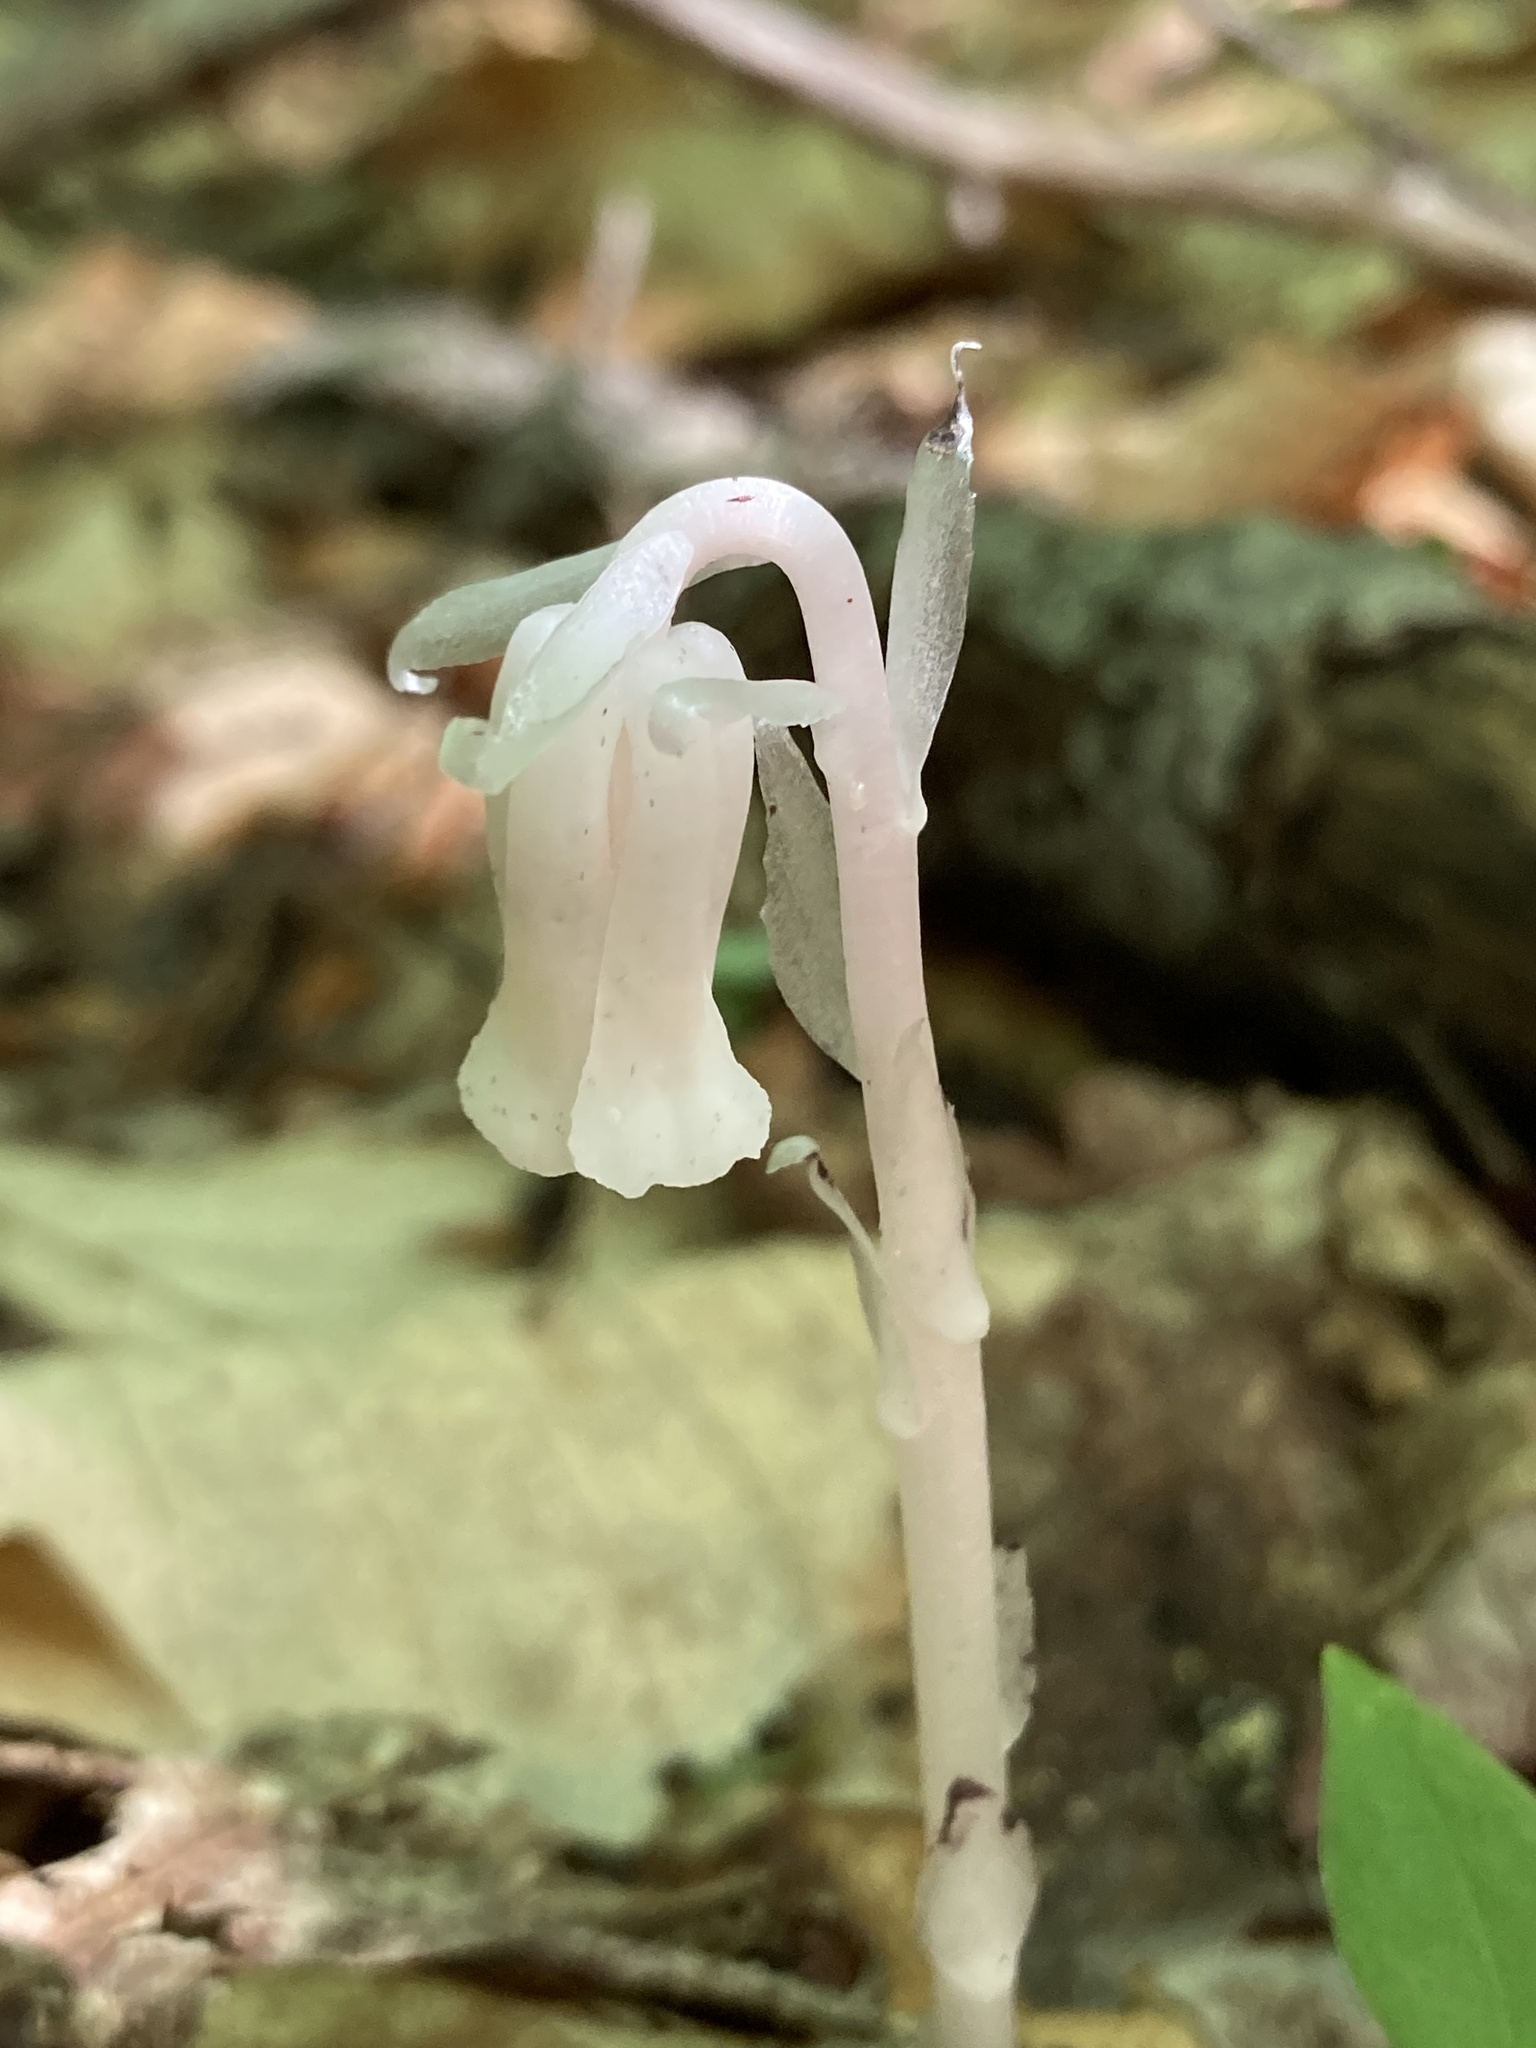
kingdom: Plantae
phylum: Tracheophyta
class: Magnoliopsida
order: Ericales
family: Ericaceae
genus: Monotropa
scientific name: Monotropa uniflora
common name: Convulsion root
